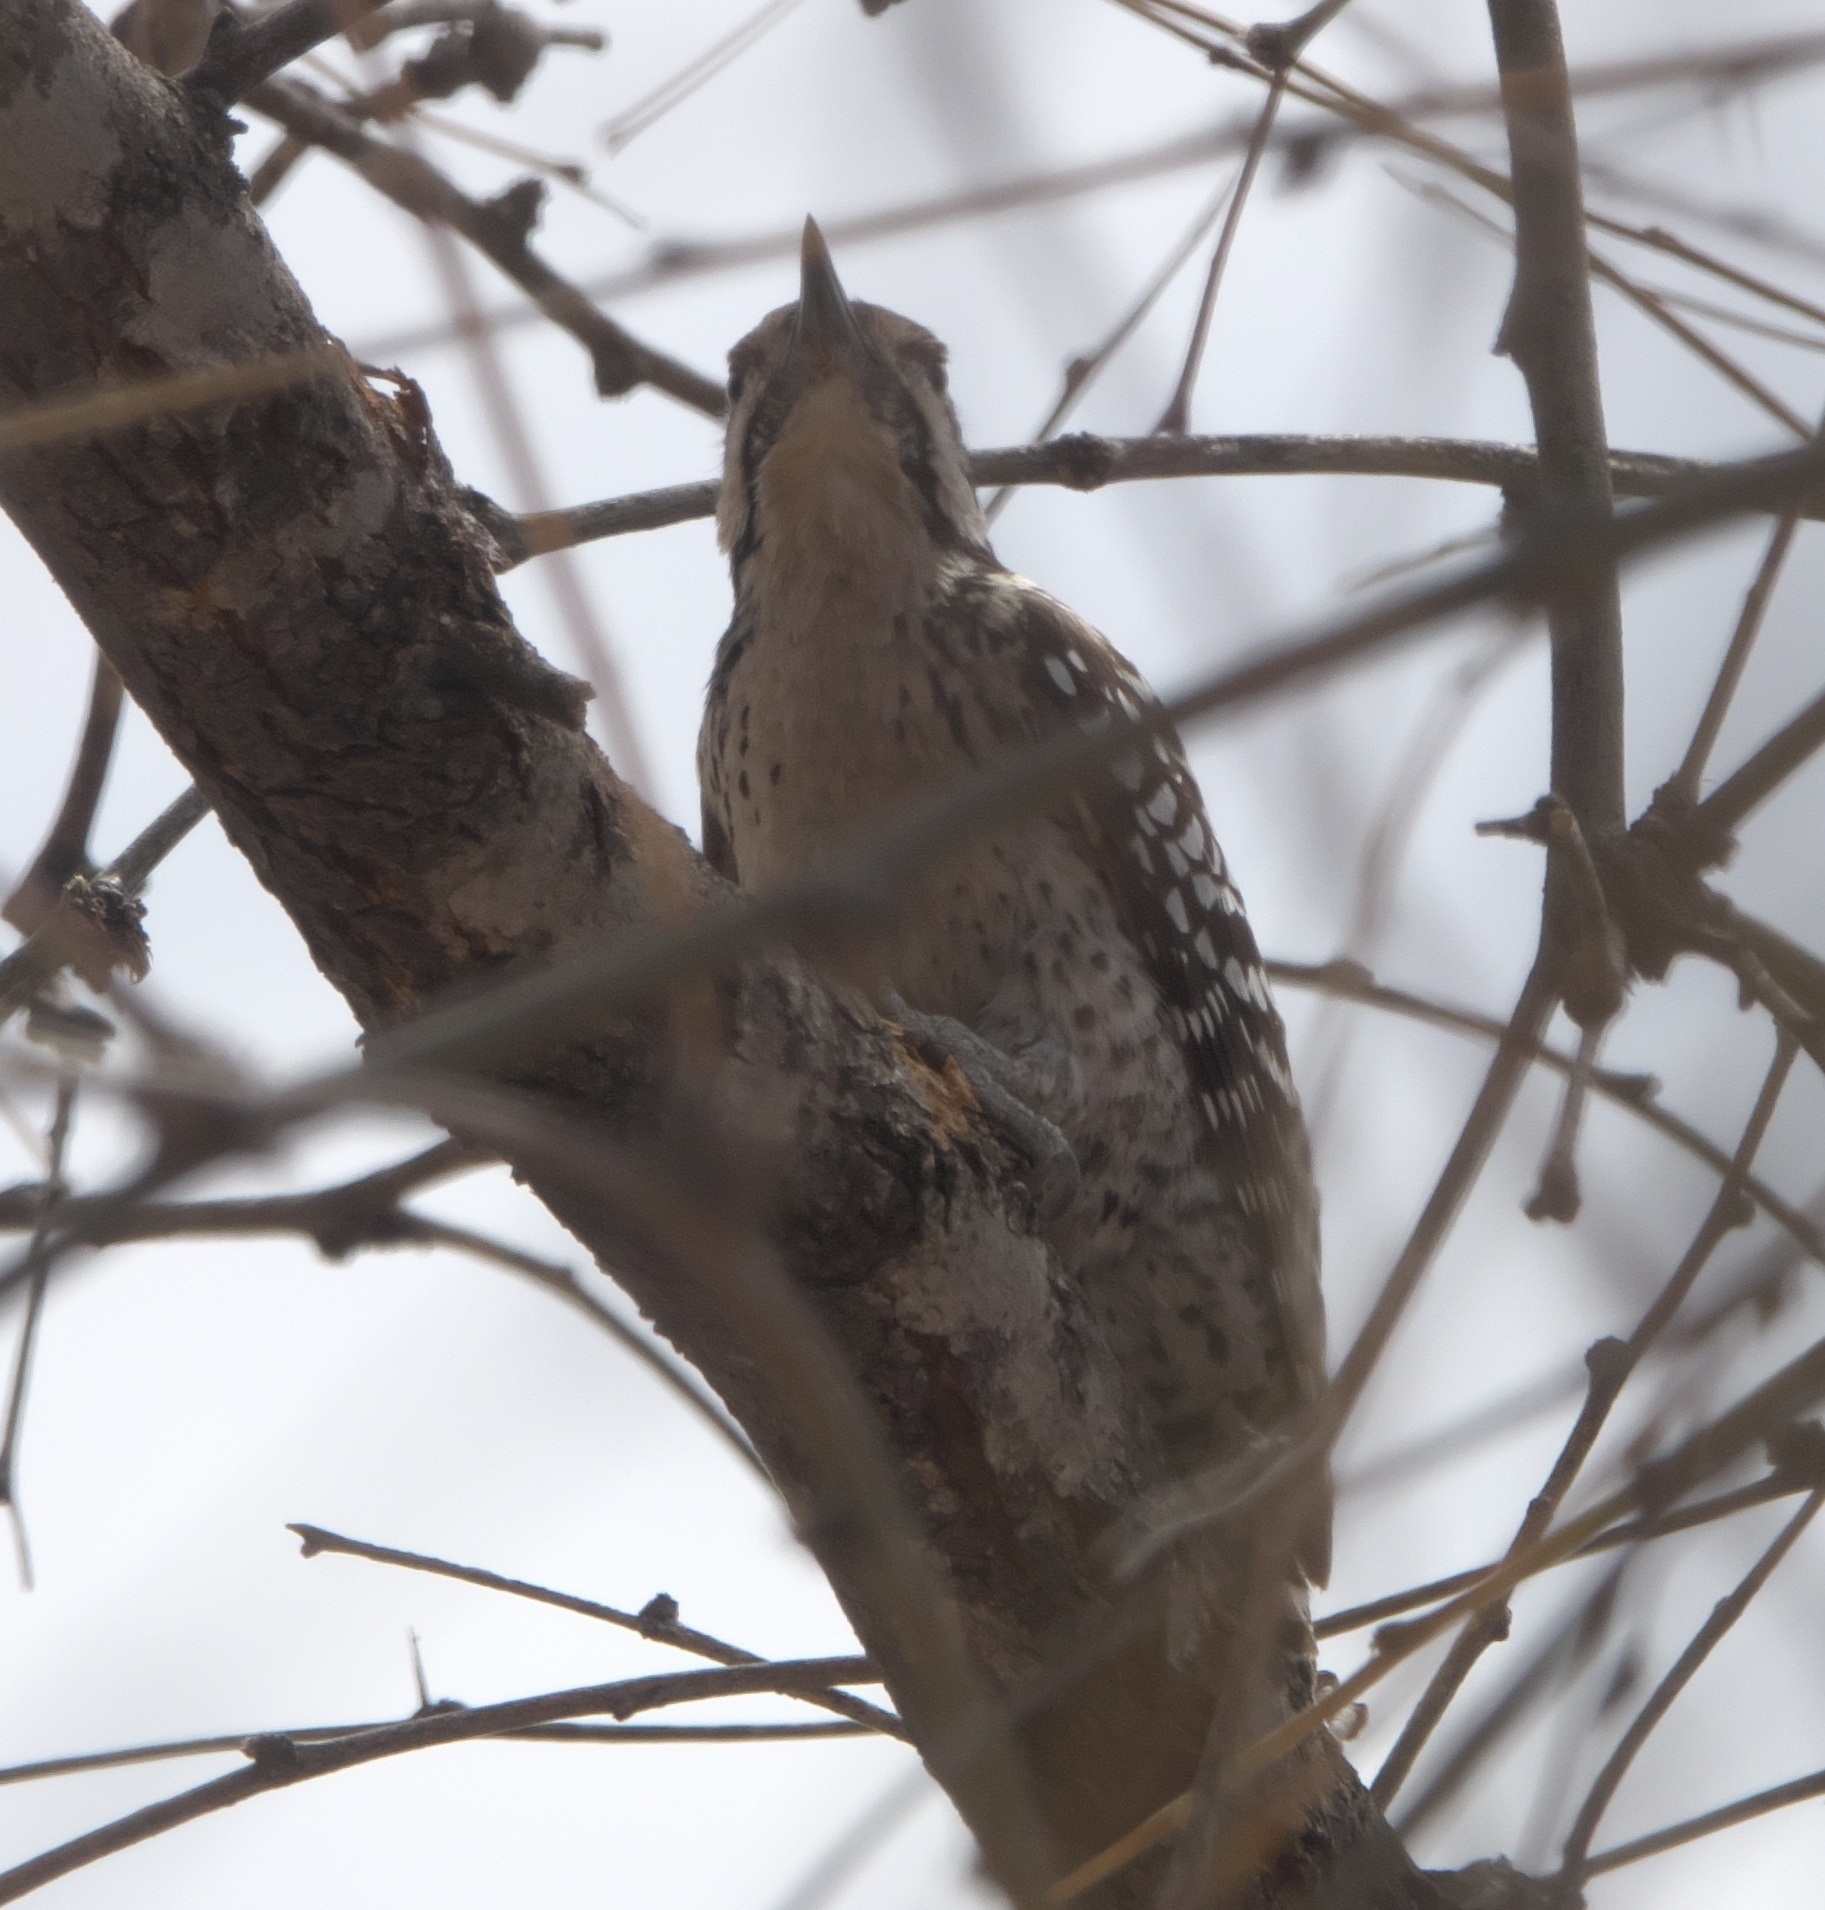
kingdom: Animalia
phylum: Chordata
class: Aves
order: Piciformes
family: Picidae
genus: Dryobates
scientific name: Dryobates scalaris
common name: Ladder-backed woodpecker
